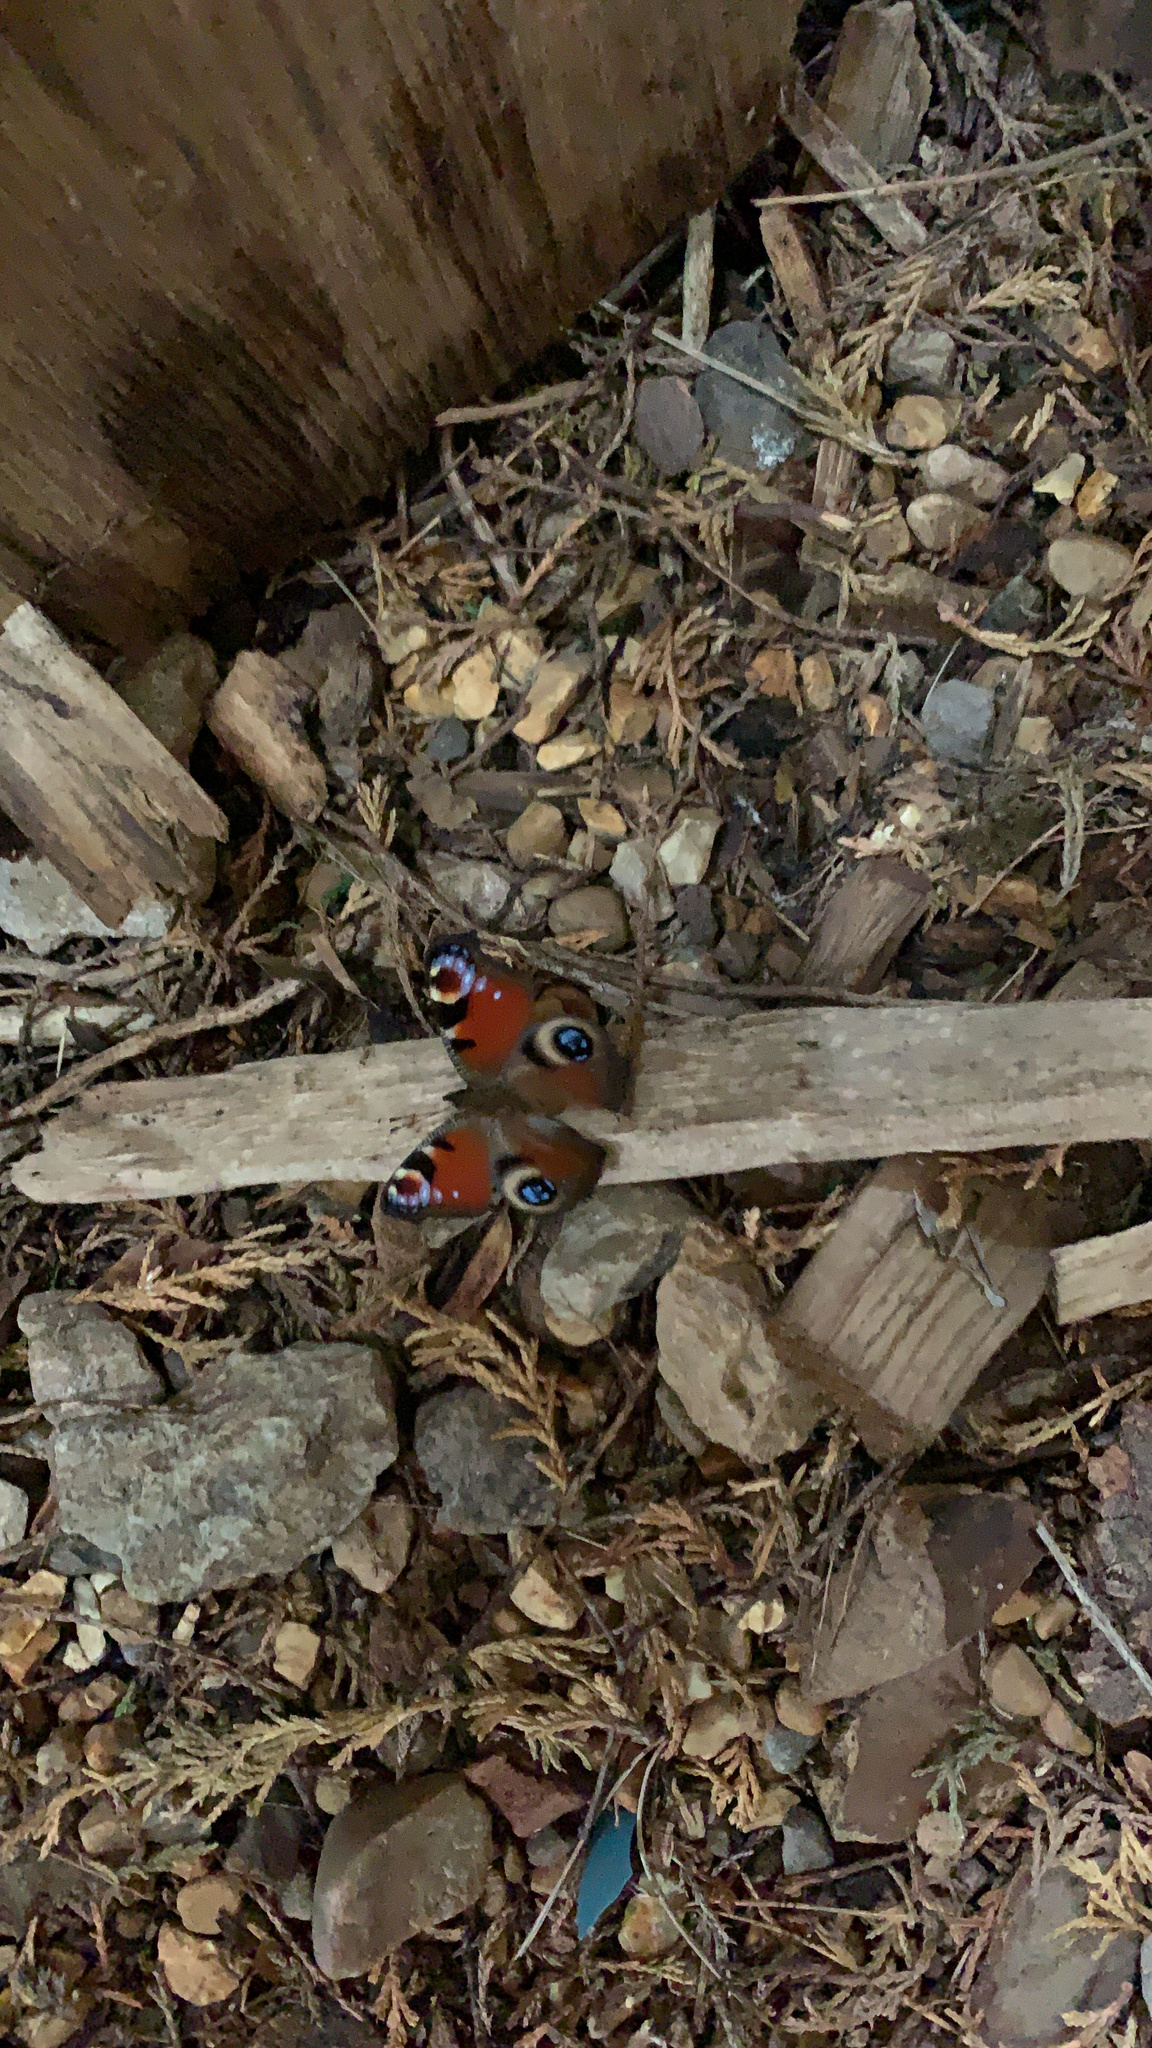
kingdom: Animalia
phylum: Arthropoda
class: Insecta
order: Lepidoptera
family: Nymphalidae
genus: Aglais
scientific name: Aglais io
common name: Peacock
